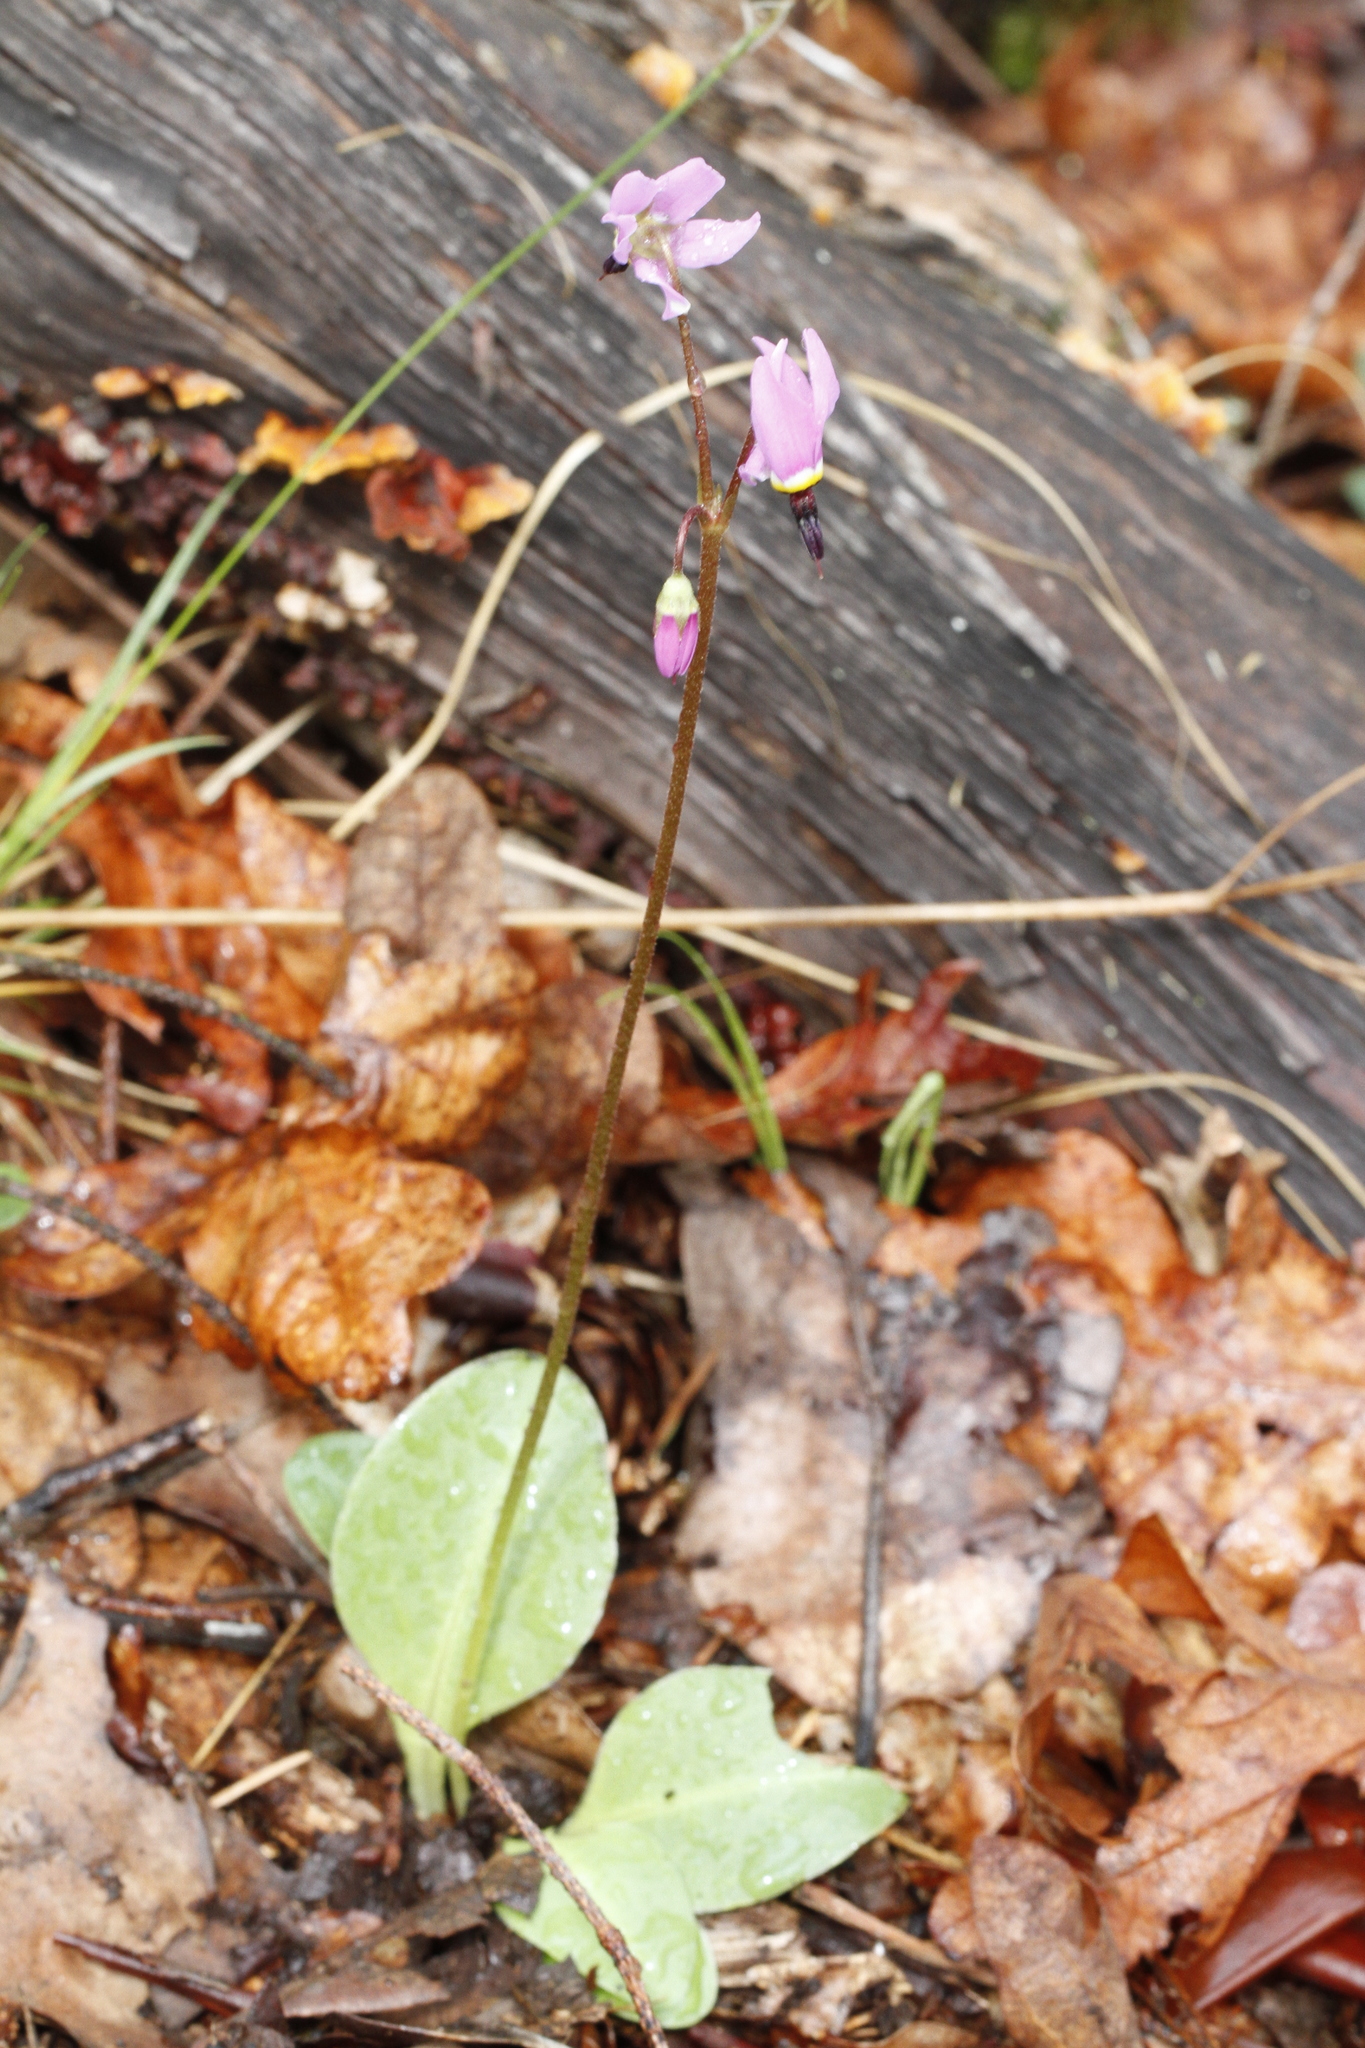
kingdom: Plantae
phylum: Tracheophyta
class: Magnoliopsida
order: Ericales
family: Primulaceae
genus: Dodecatheon
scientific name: Dodecatheon hendersonii
